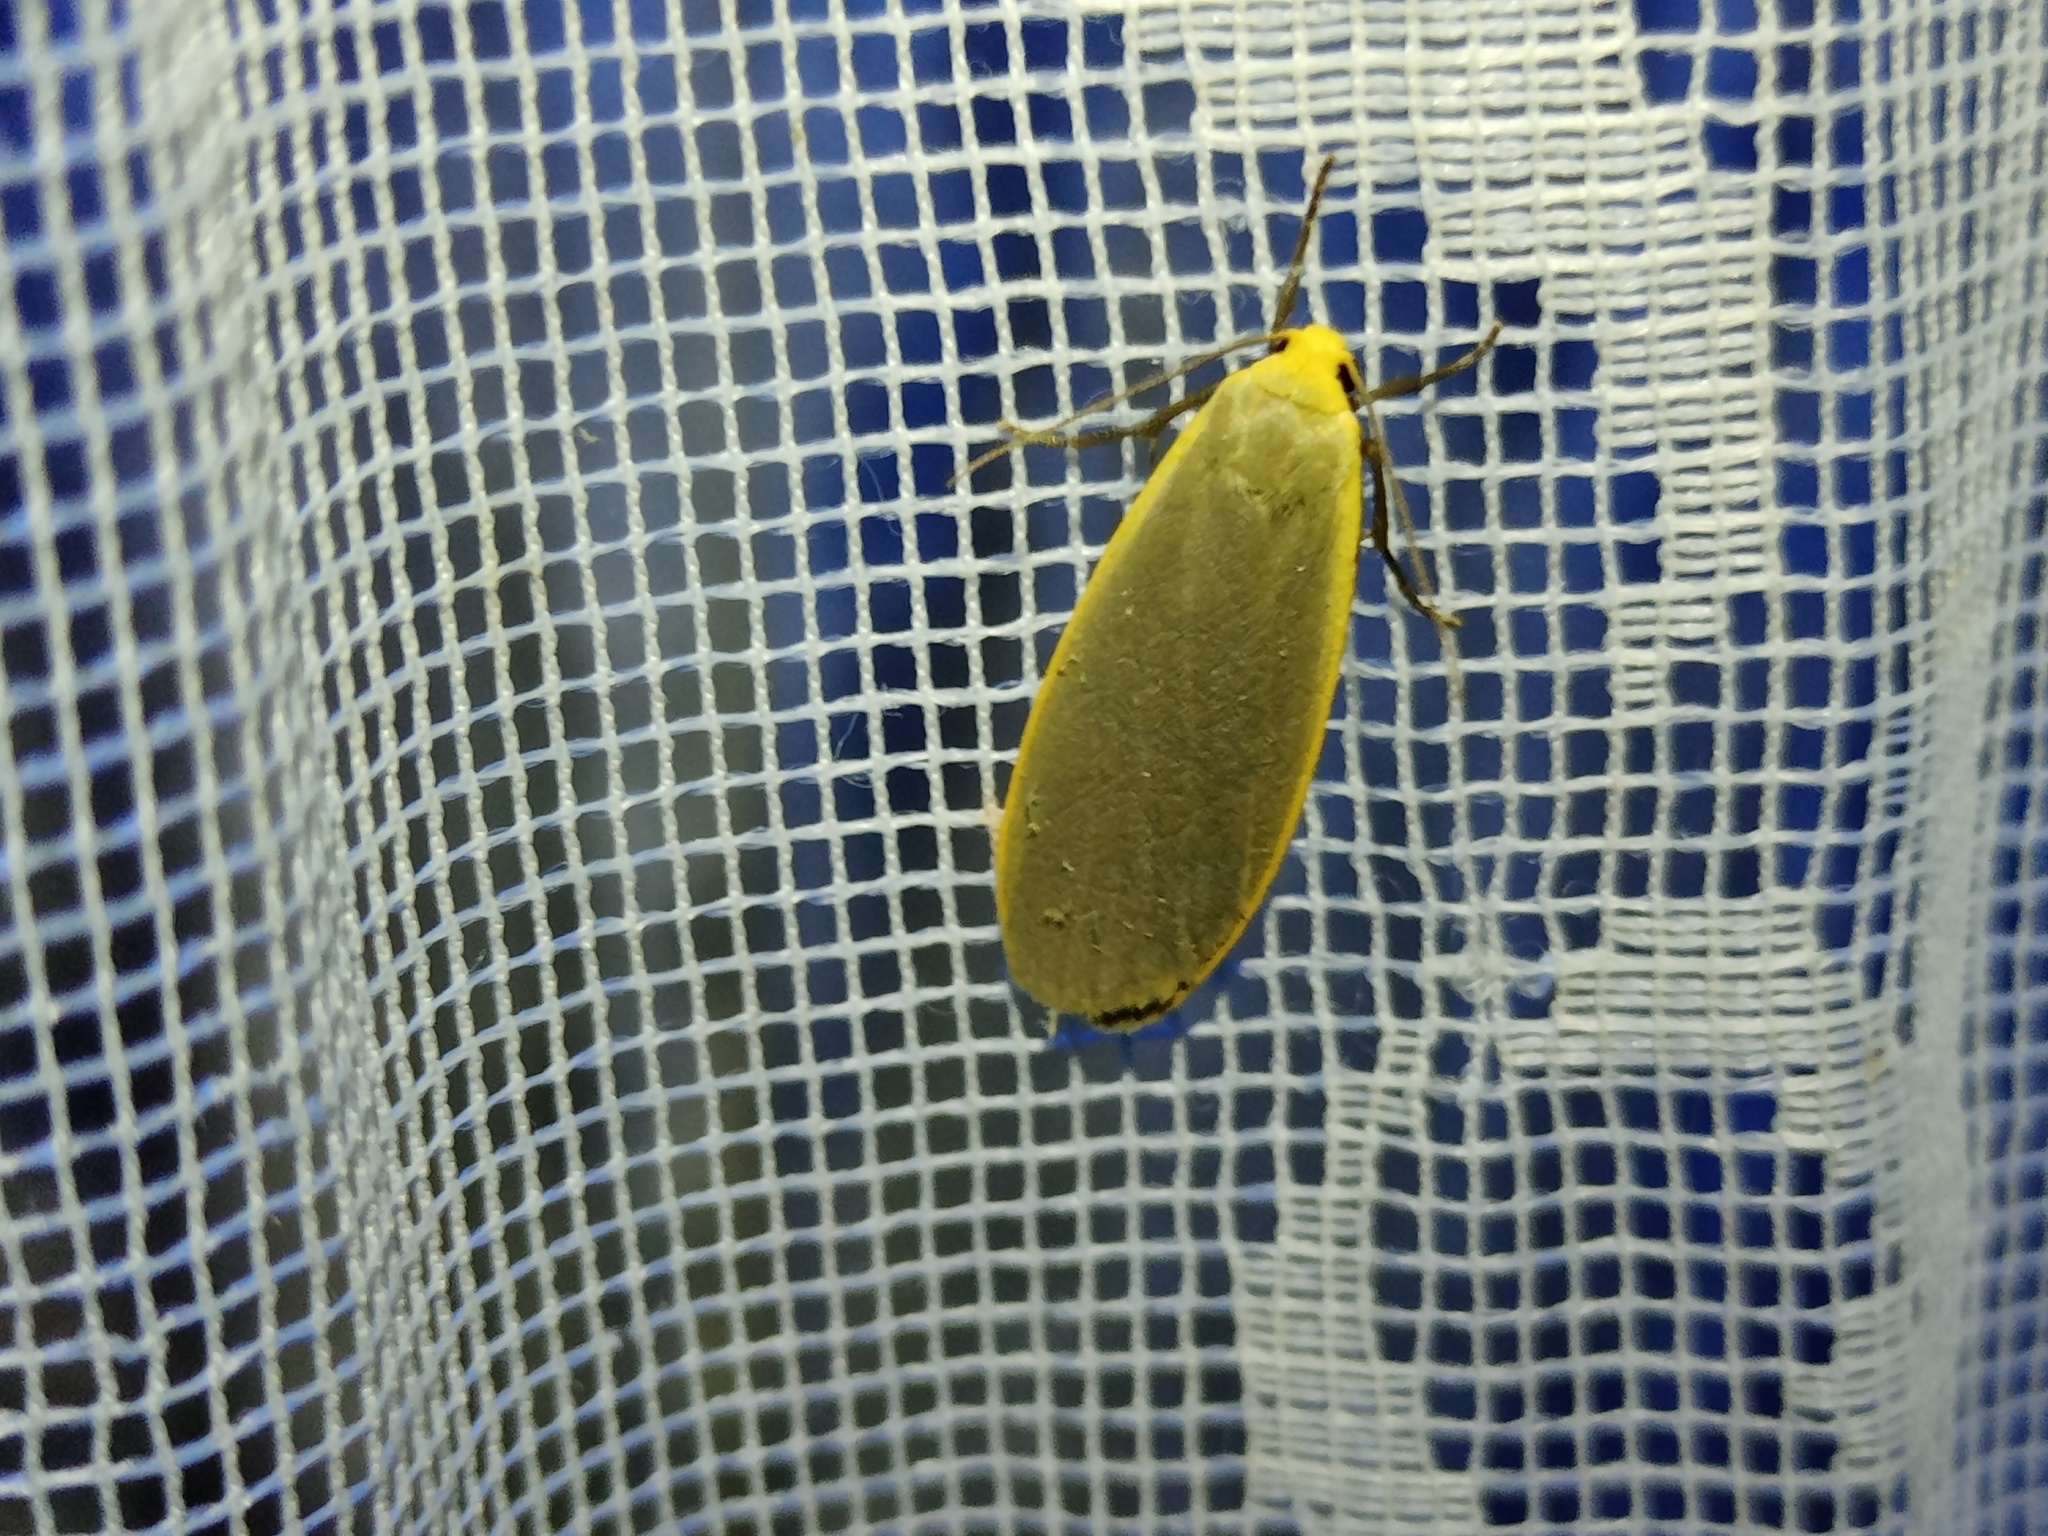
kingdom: Animalia
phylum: Arthropoda
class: Insecta
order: Lepidoptera
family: Erebidae
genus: Collita
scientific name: Collita griseola
